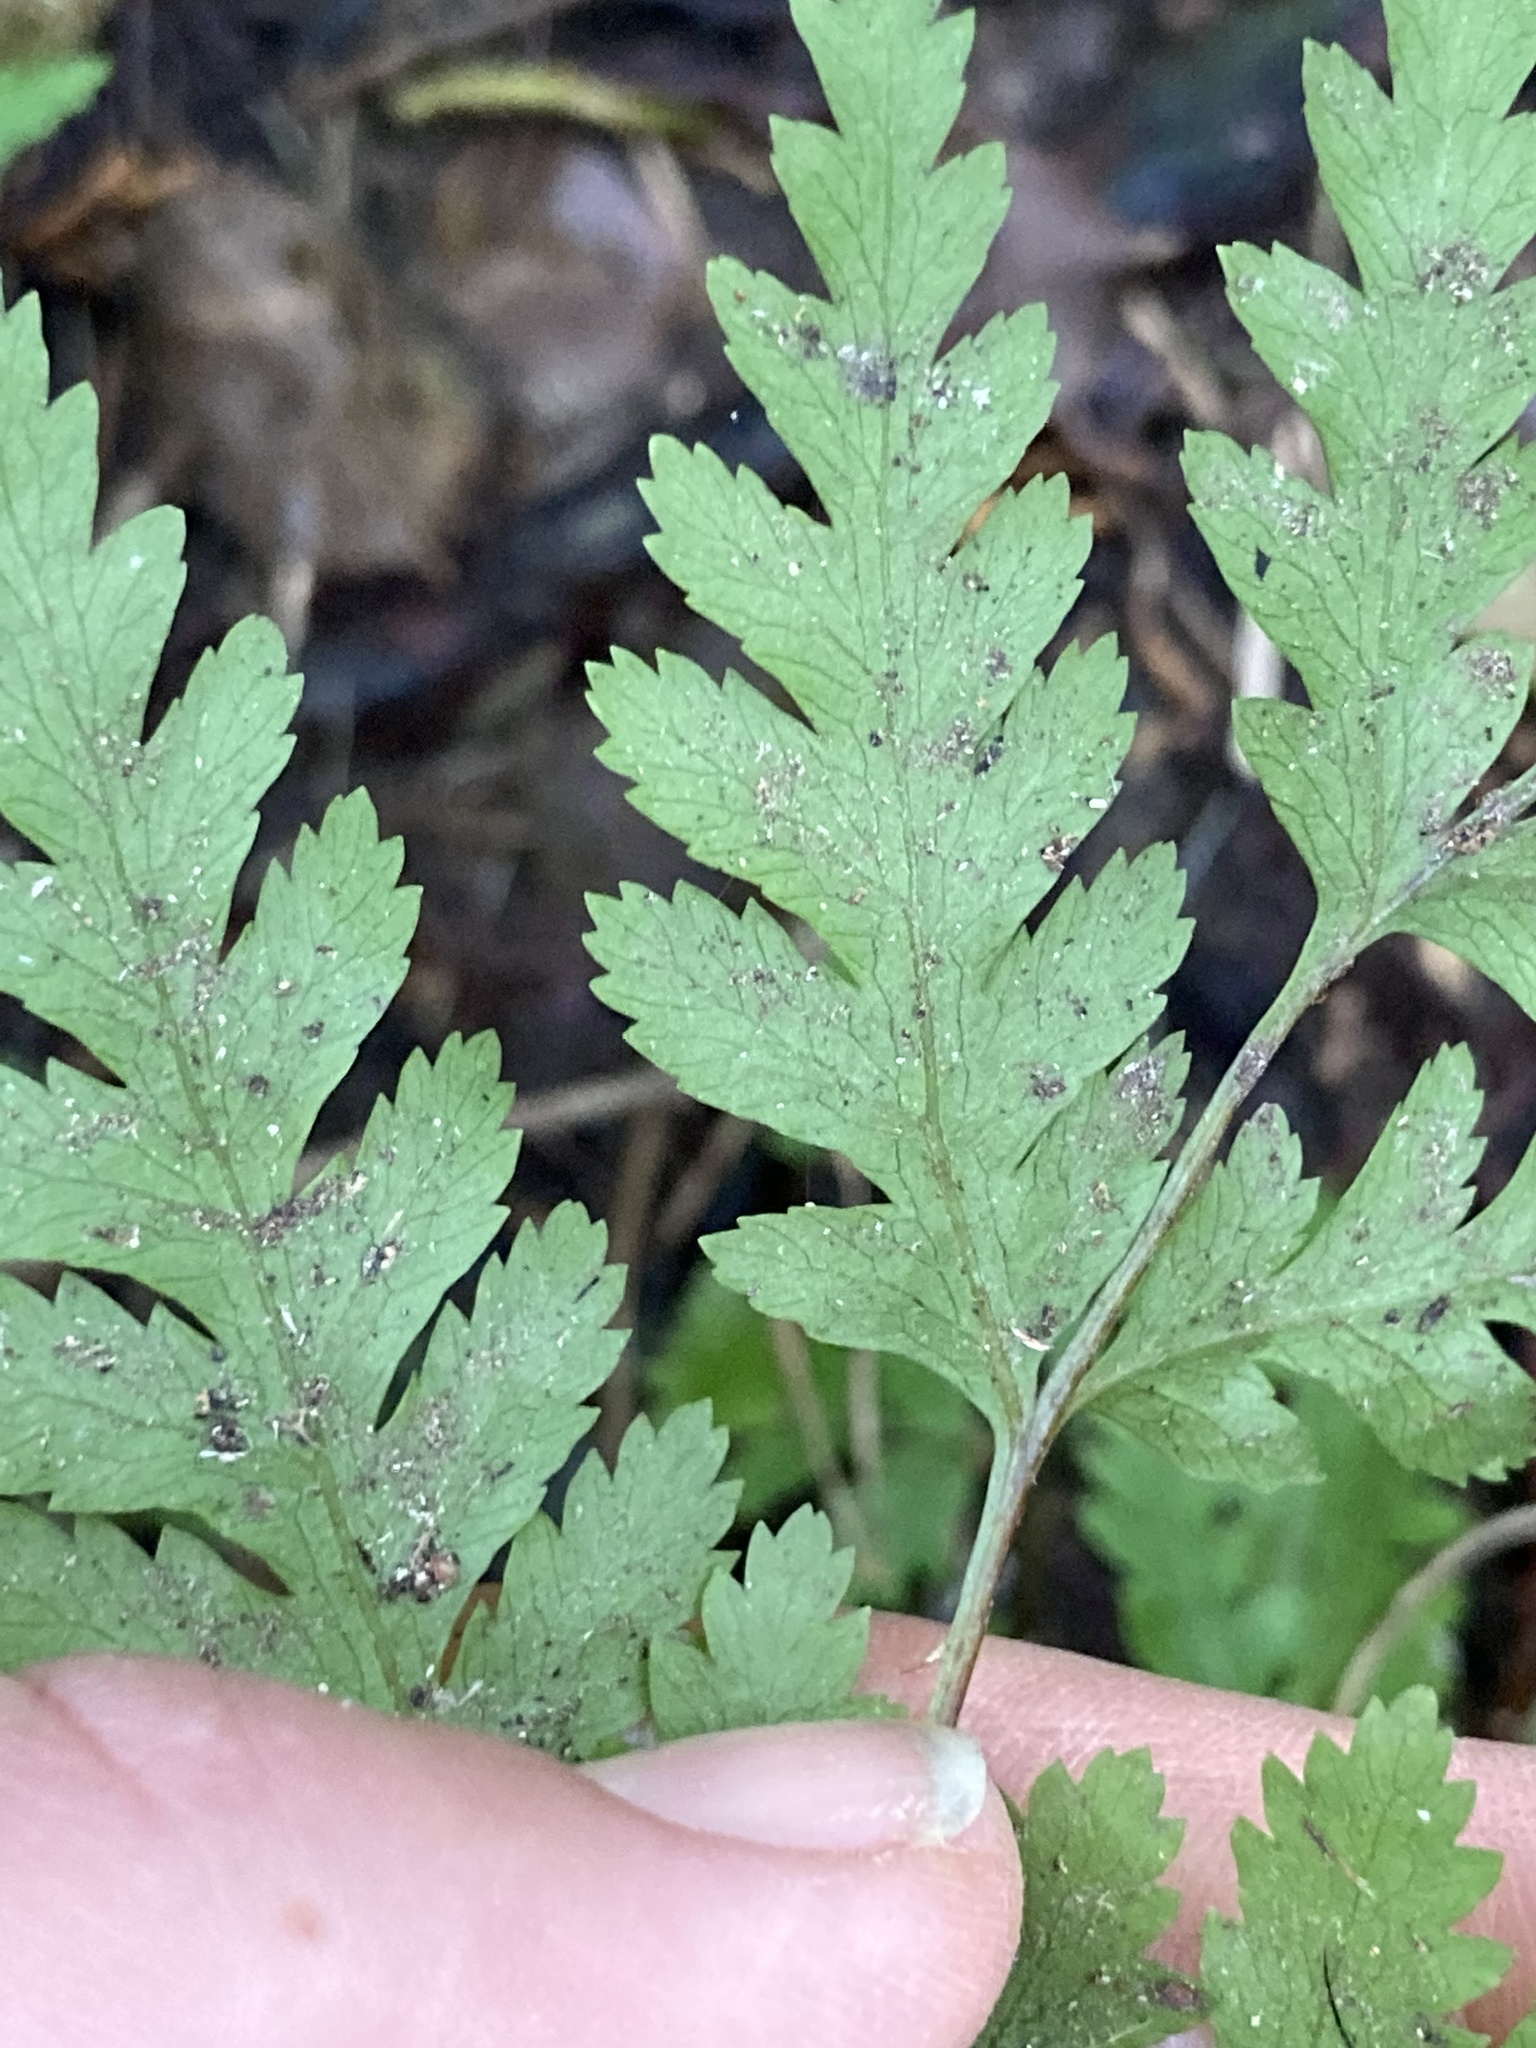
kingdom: Plantae
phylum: Tracheophyta
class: Polypodiopsida
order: Polypodiales
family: Pteridaceae
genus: Pteris
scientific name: Pteris macilenta
